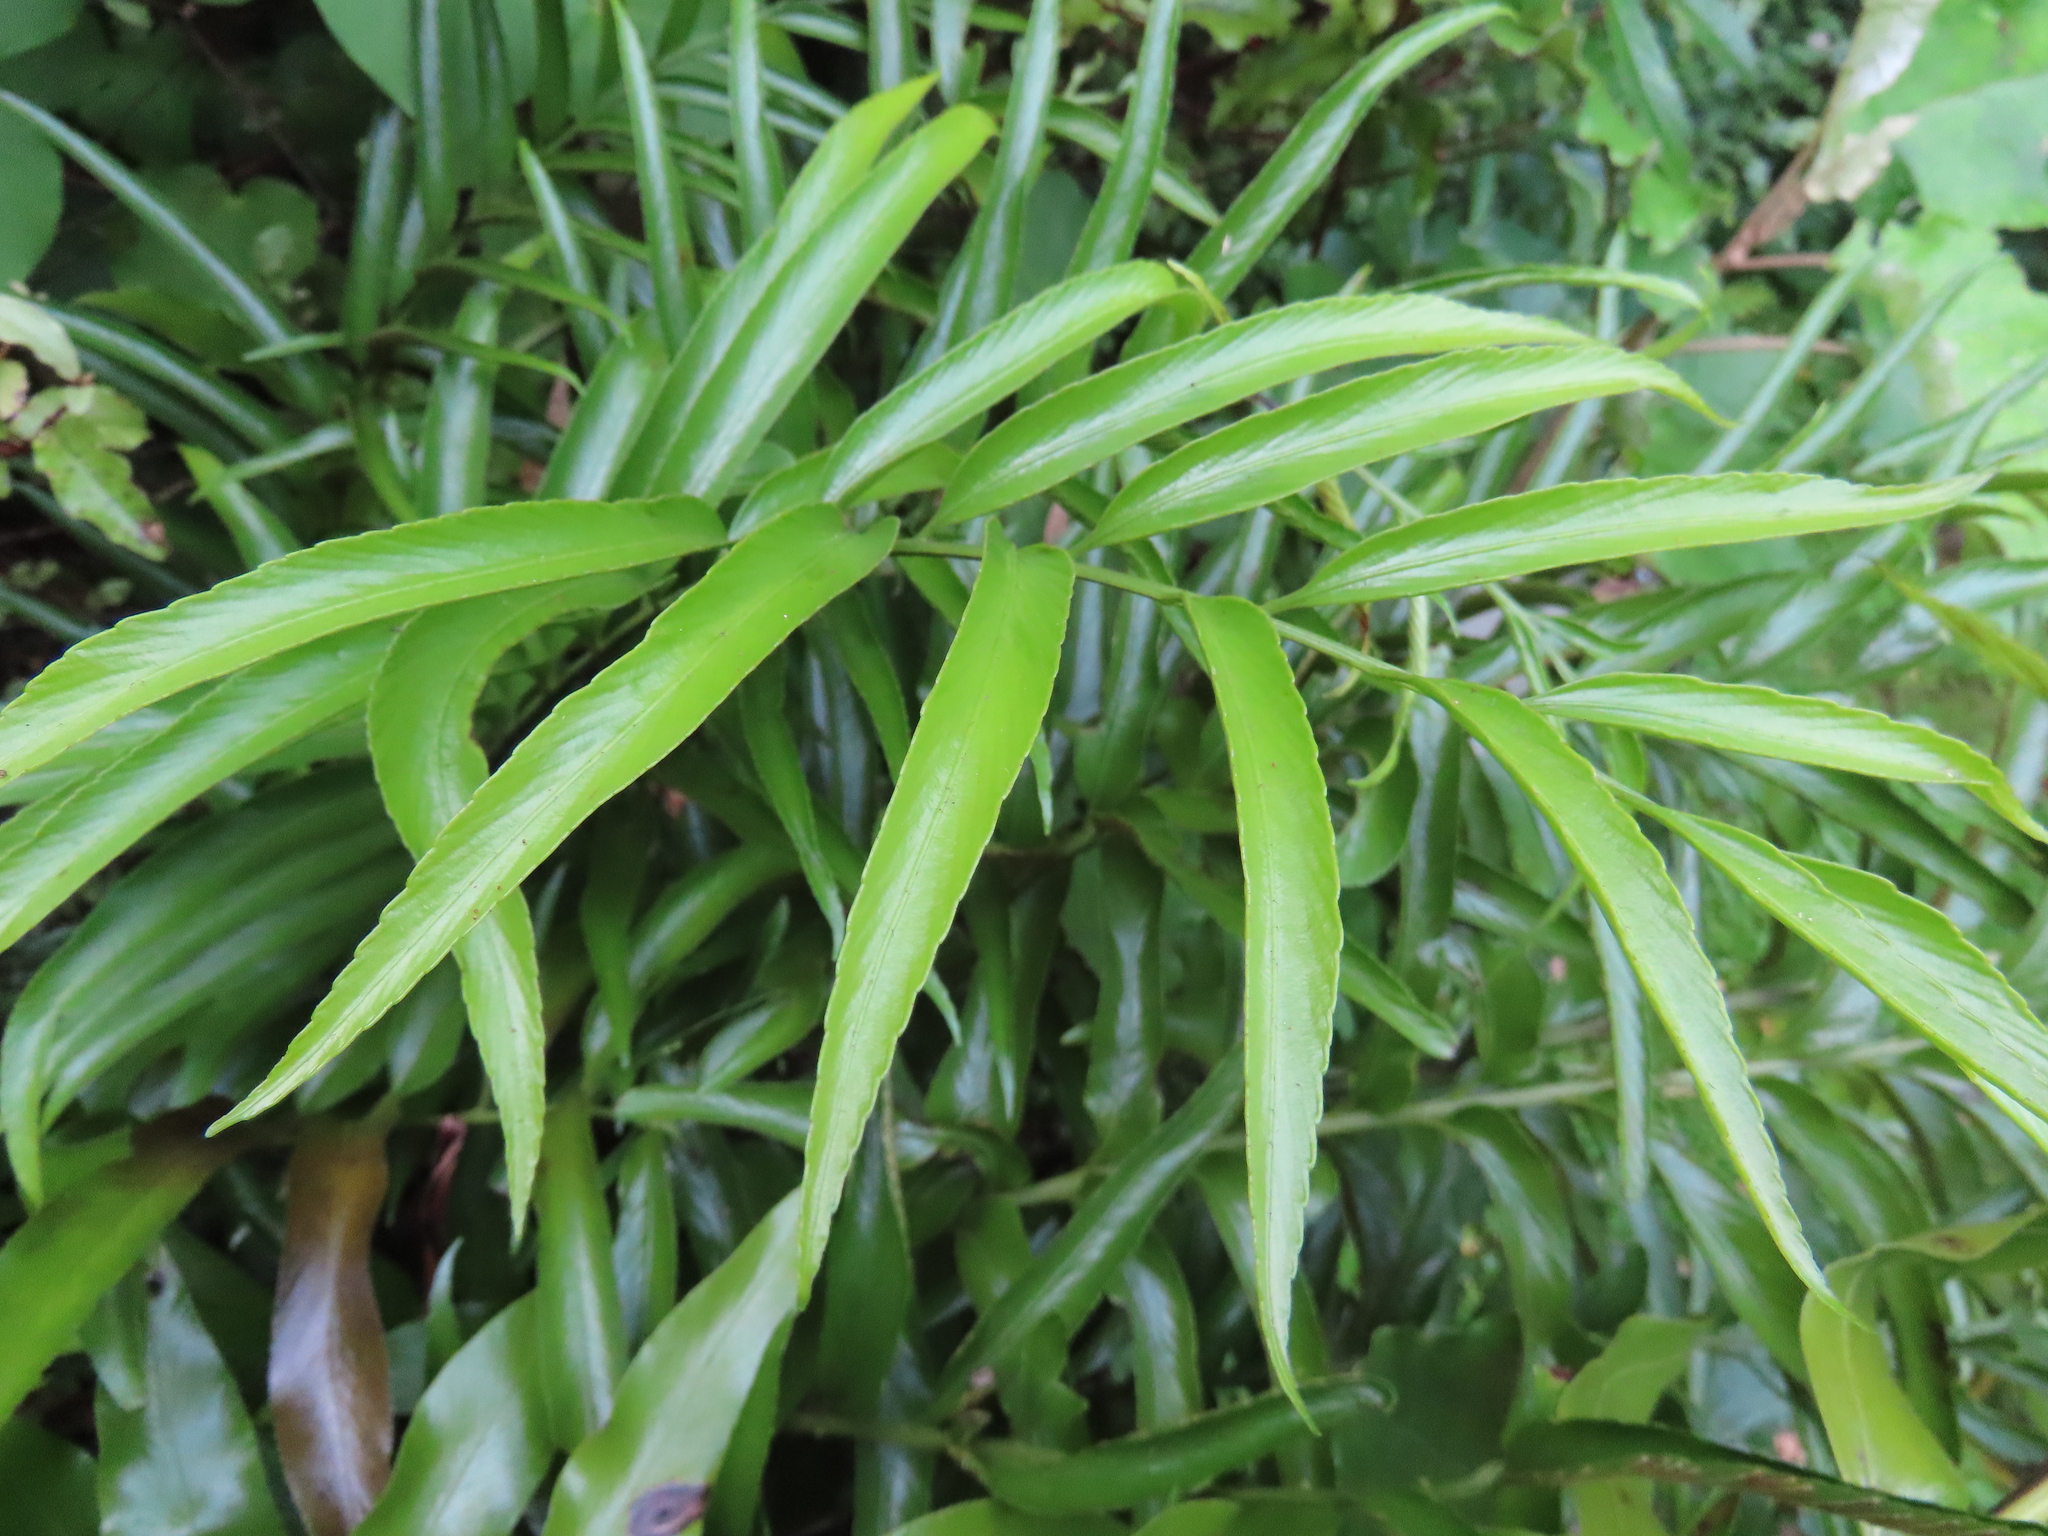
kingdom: Plantae
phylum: Tracheophyta
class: Polypodiopsida
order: Polypodiales
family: Aspleniaceae
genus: Asplenium
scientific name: Asplenium oblongifolium
